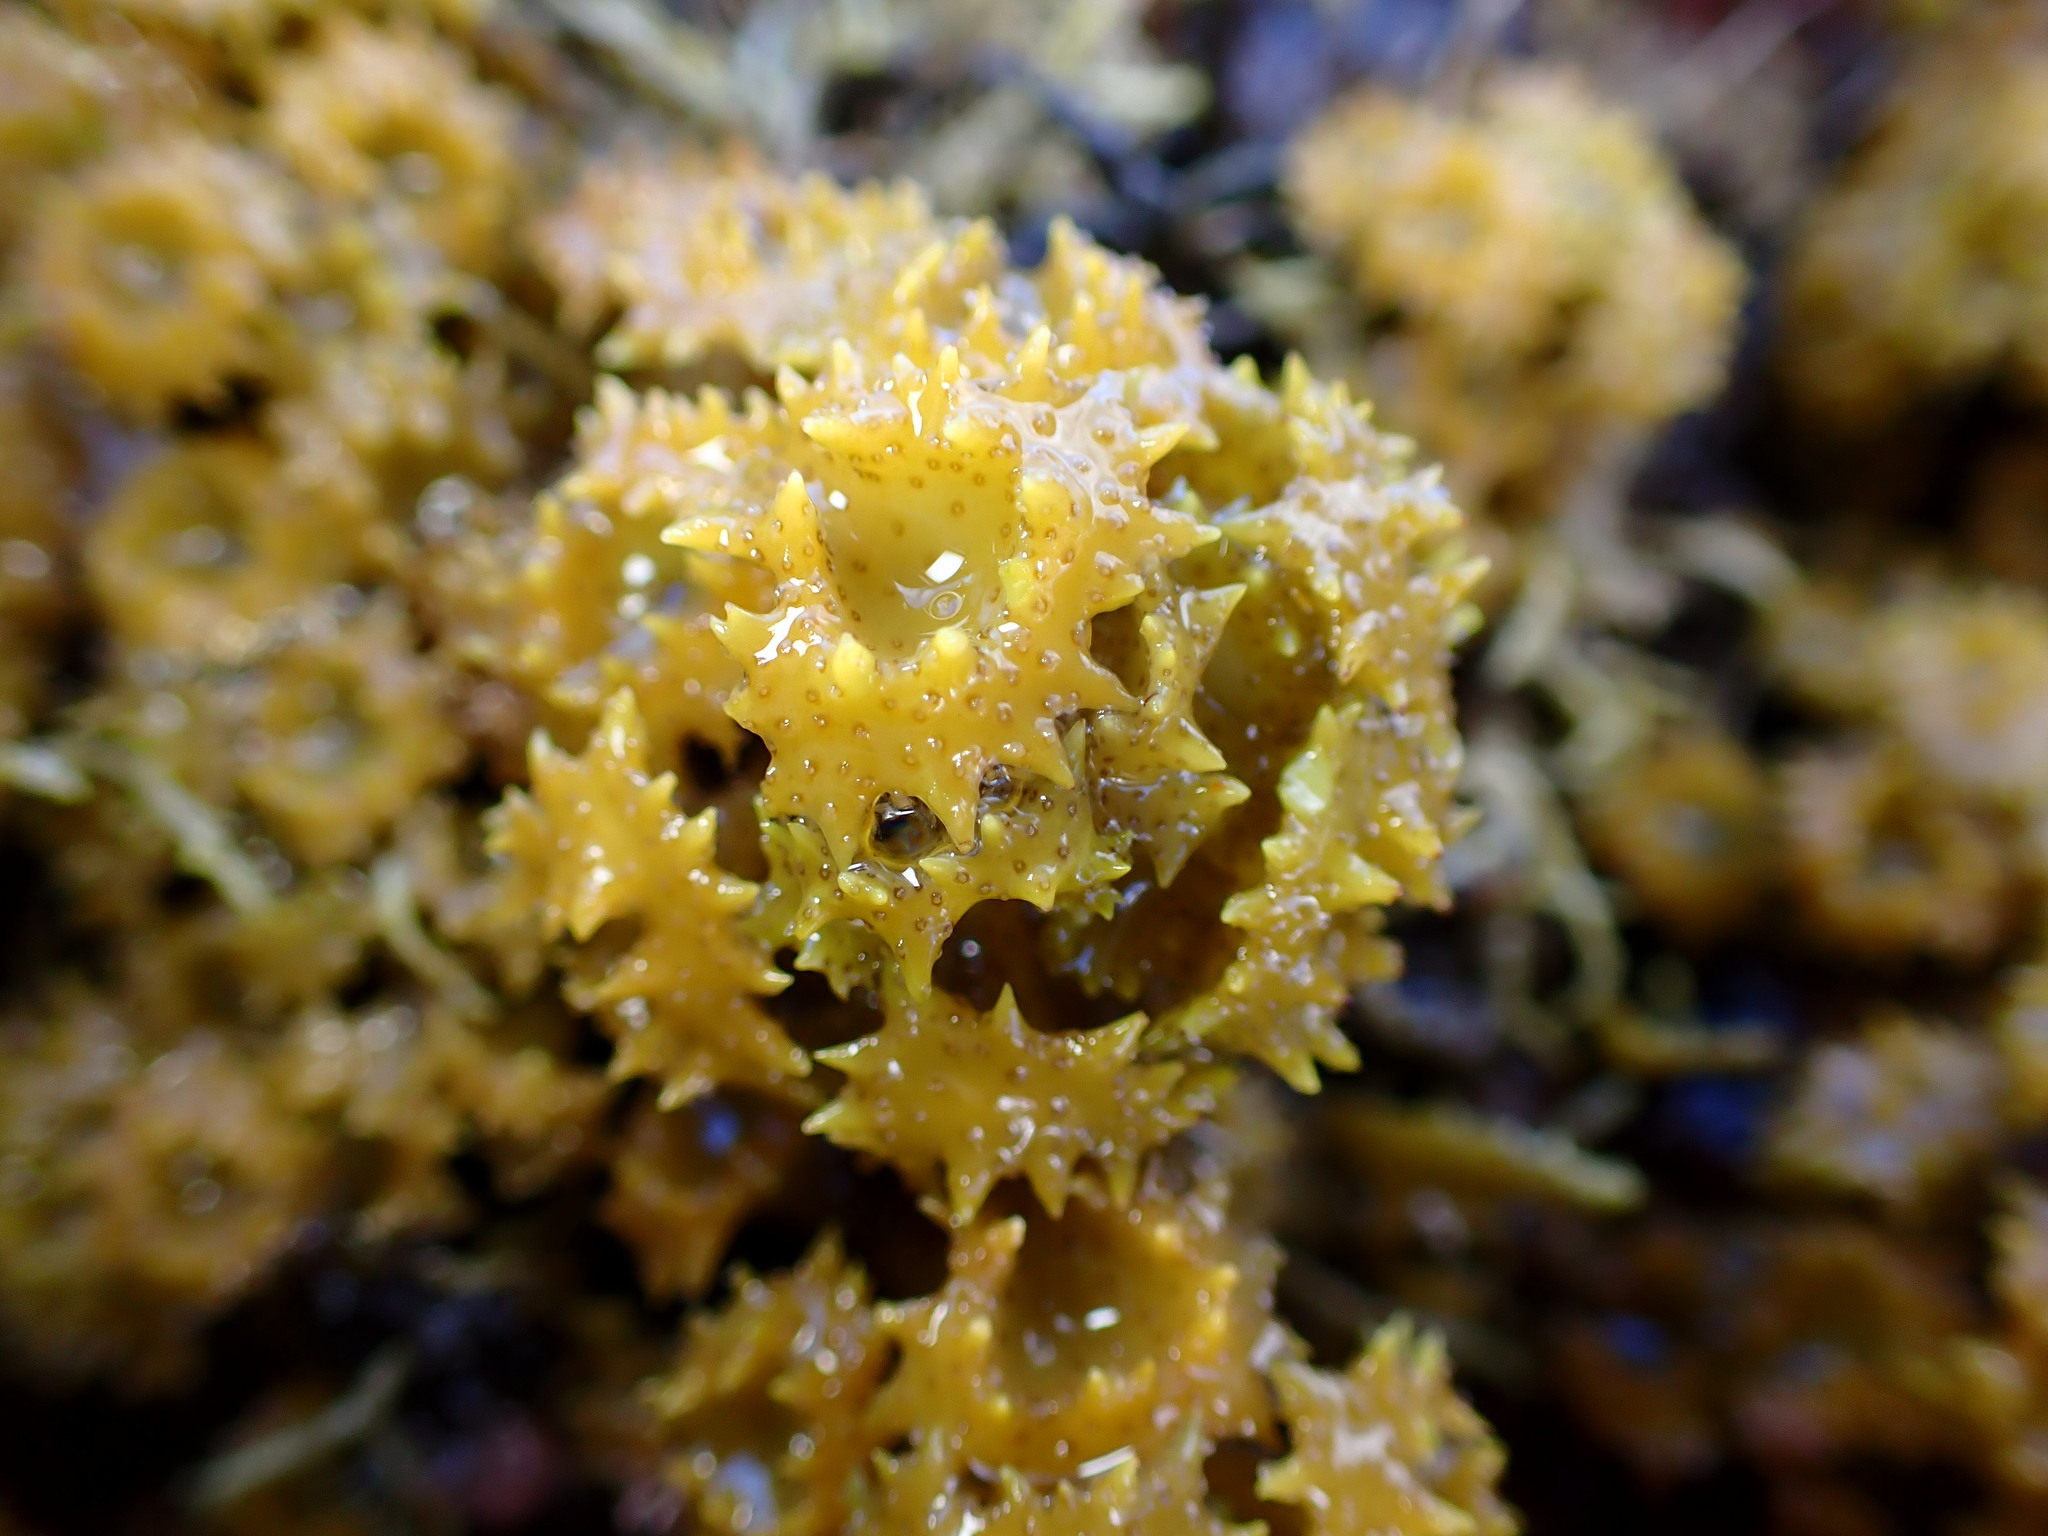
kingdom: Chromista
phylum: Ochrophyta
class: Phaeophyceae
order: Fucales
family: Sargassaceae
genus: Turbinaria
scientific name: Turbinaria ornata
